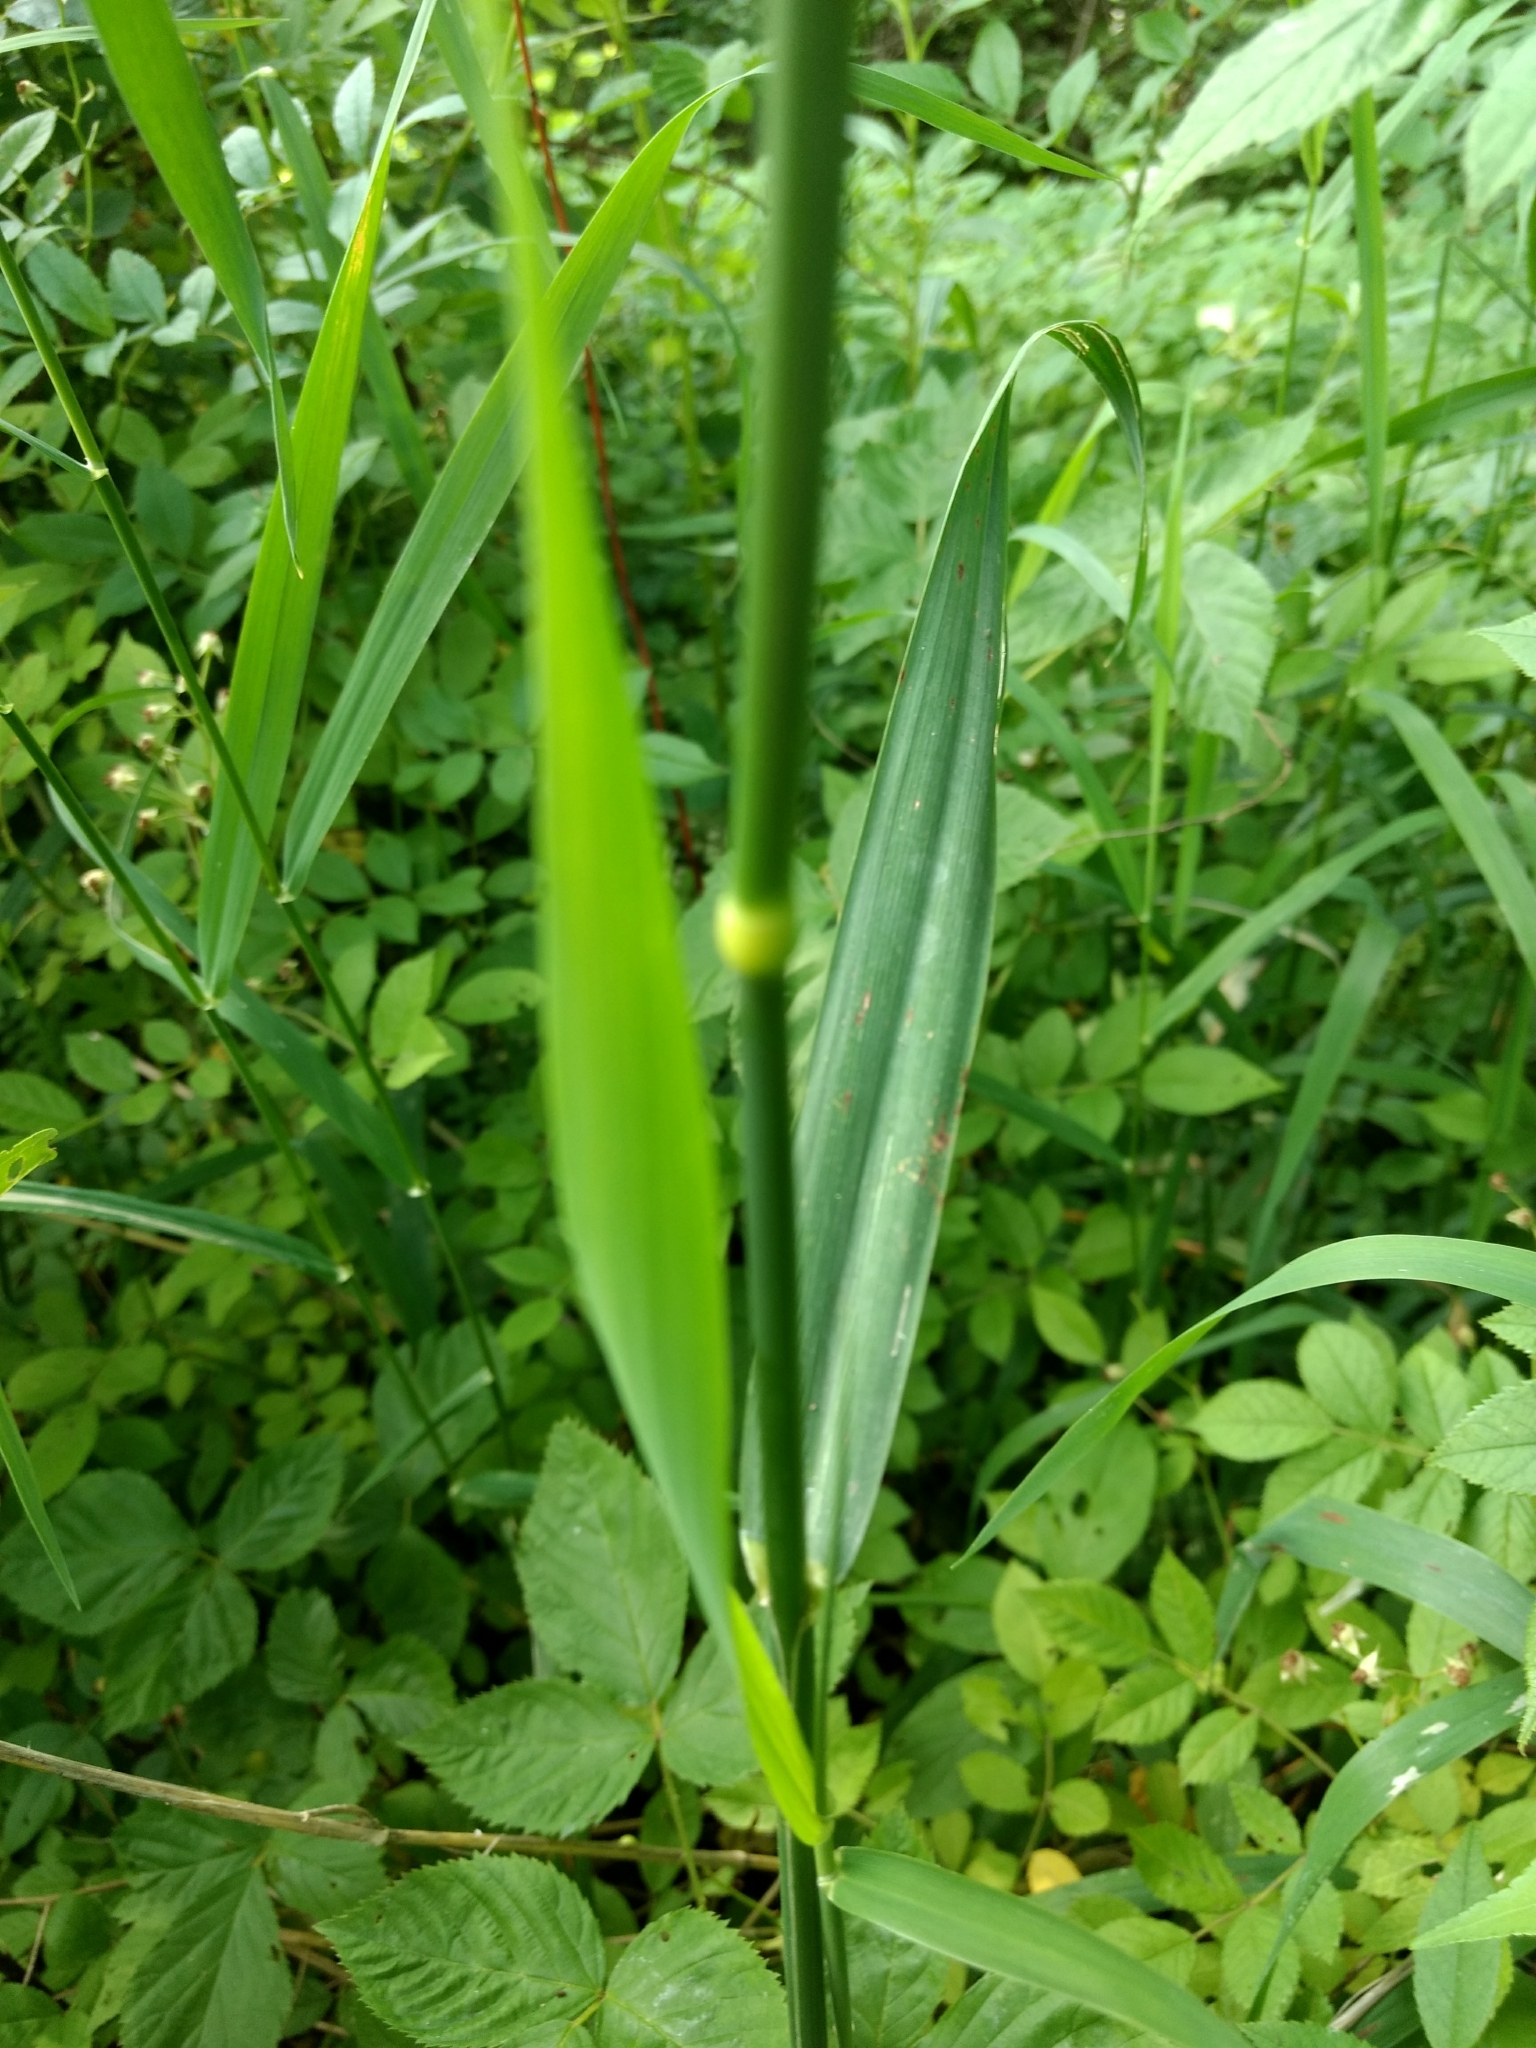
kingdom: Plantae
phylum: Tracheophyta
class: Liliopsida
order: Poales
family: Poaceae
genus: Phalaris
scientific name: Phalaris arundinacea
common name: Reed canary-grass
